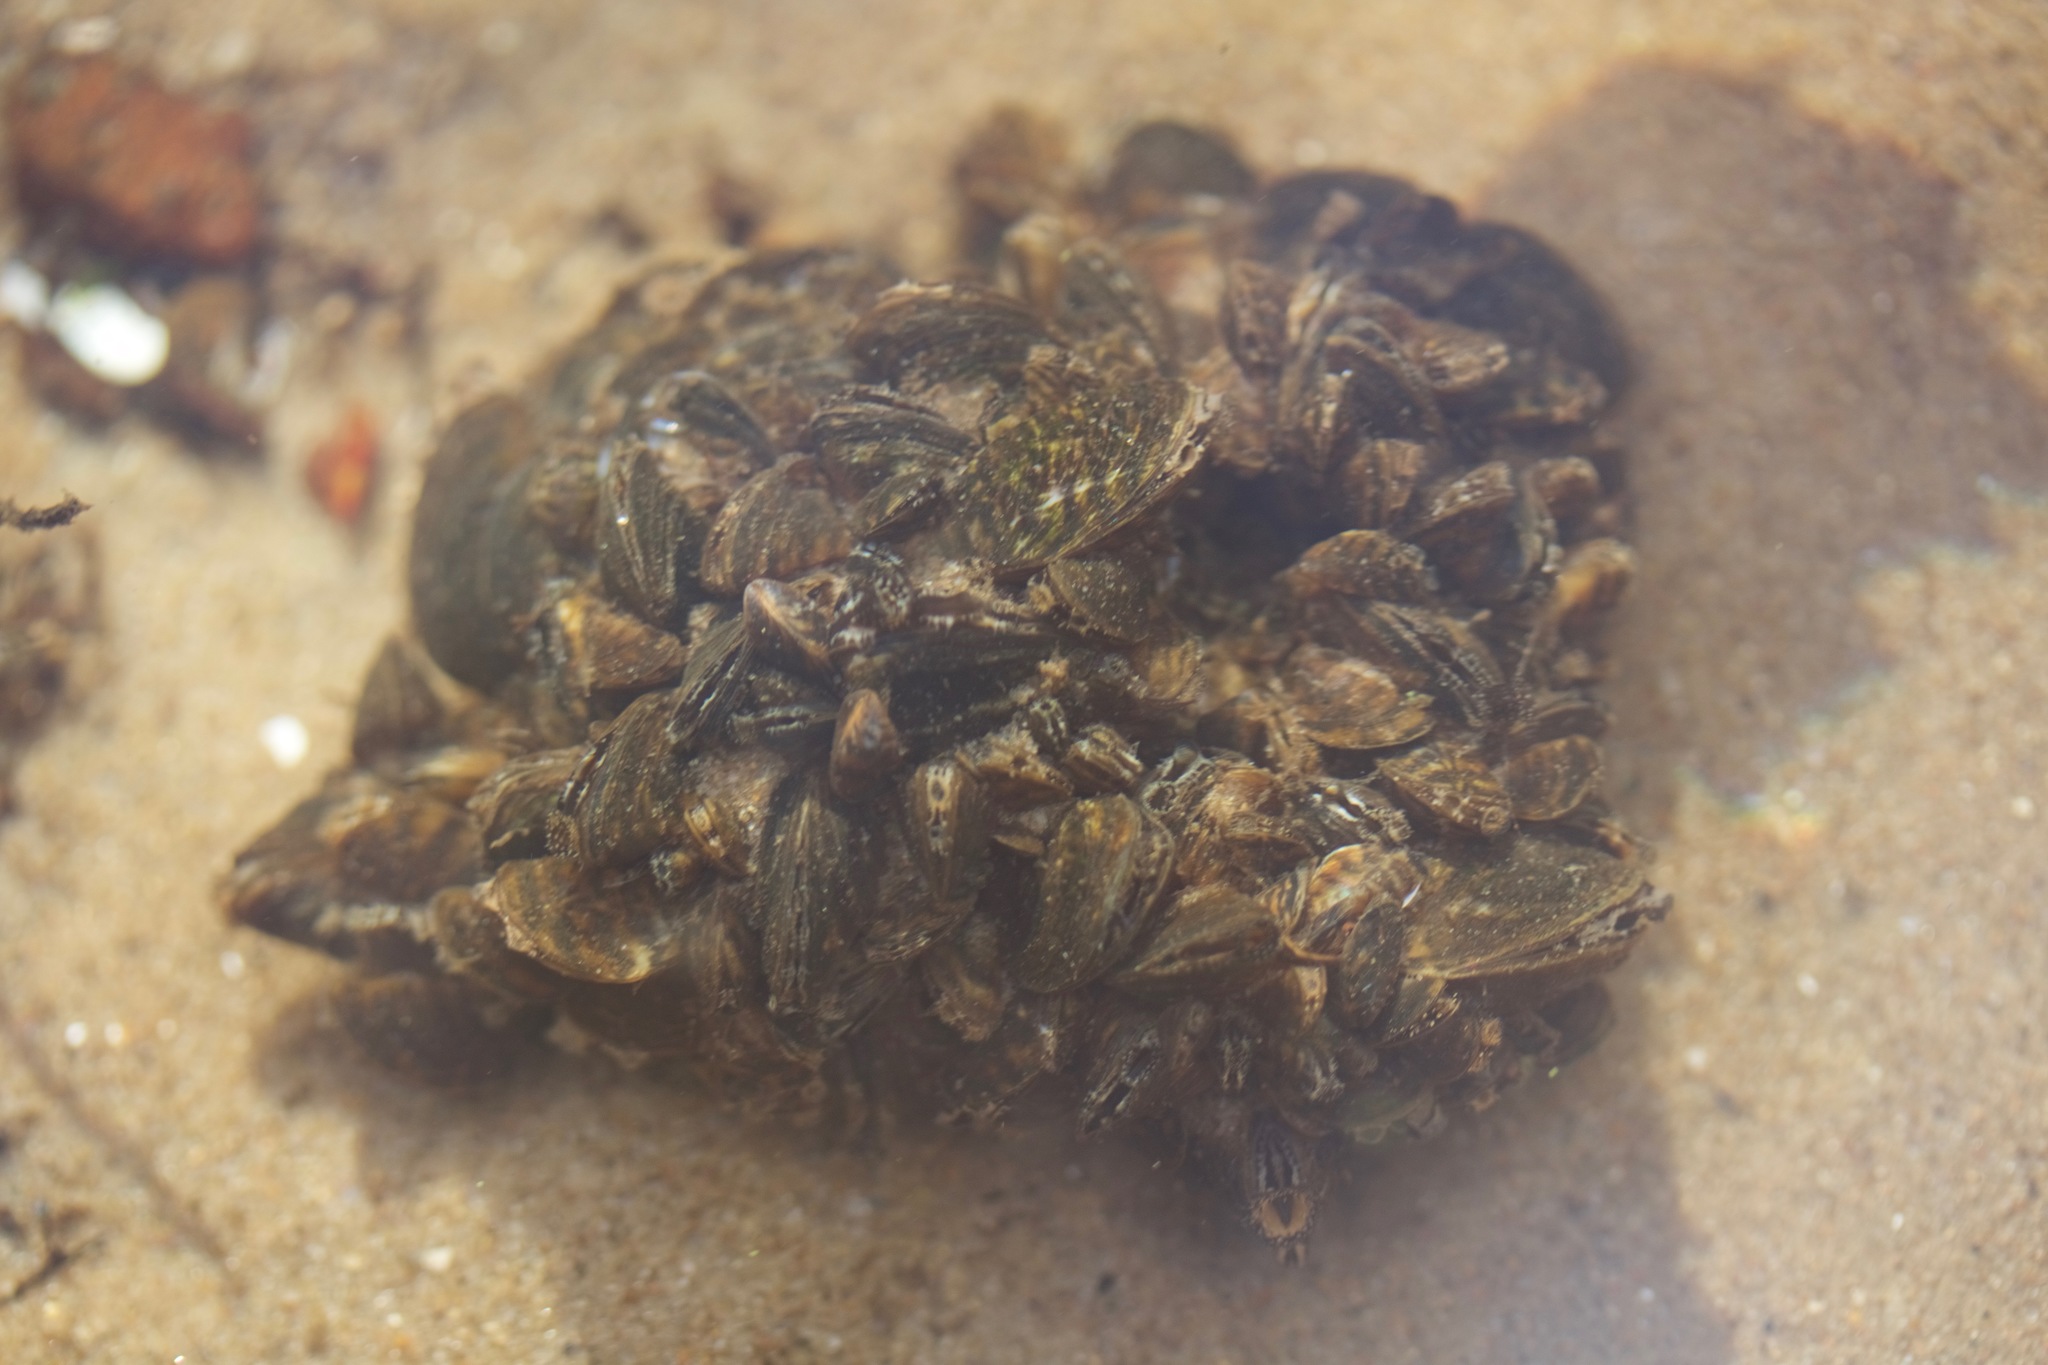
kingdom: Animalia
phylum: Mollusca
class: Bivalvia
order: Myida
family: Dreissenidae
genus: Dreissena
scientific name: Dreissena polymorpha
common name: Zebra mussel
